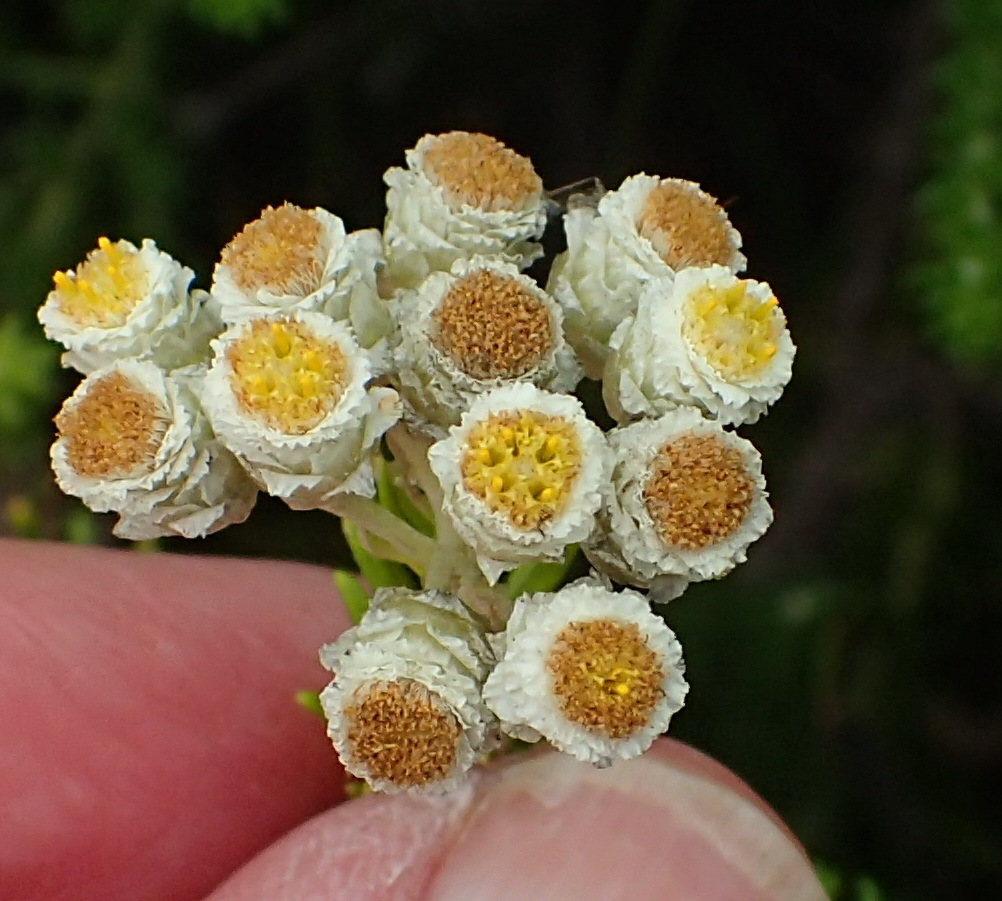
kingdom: Plantae
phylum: Tracheophyta
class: Magnoliopsida
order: Asterales
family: Asteraceae
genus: Helichrysum
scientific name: Helichrysum teretifolium
